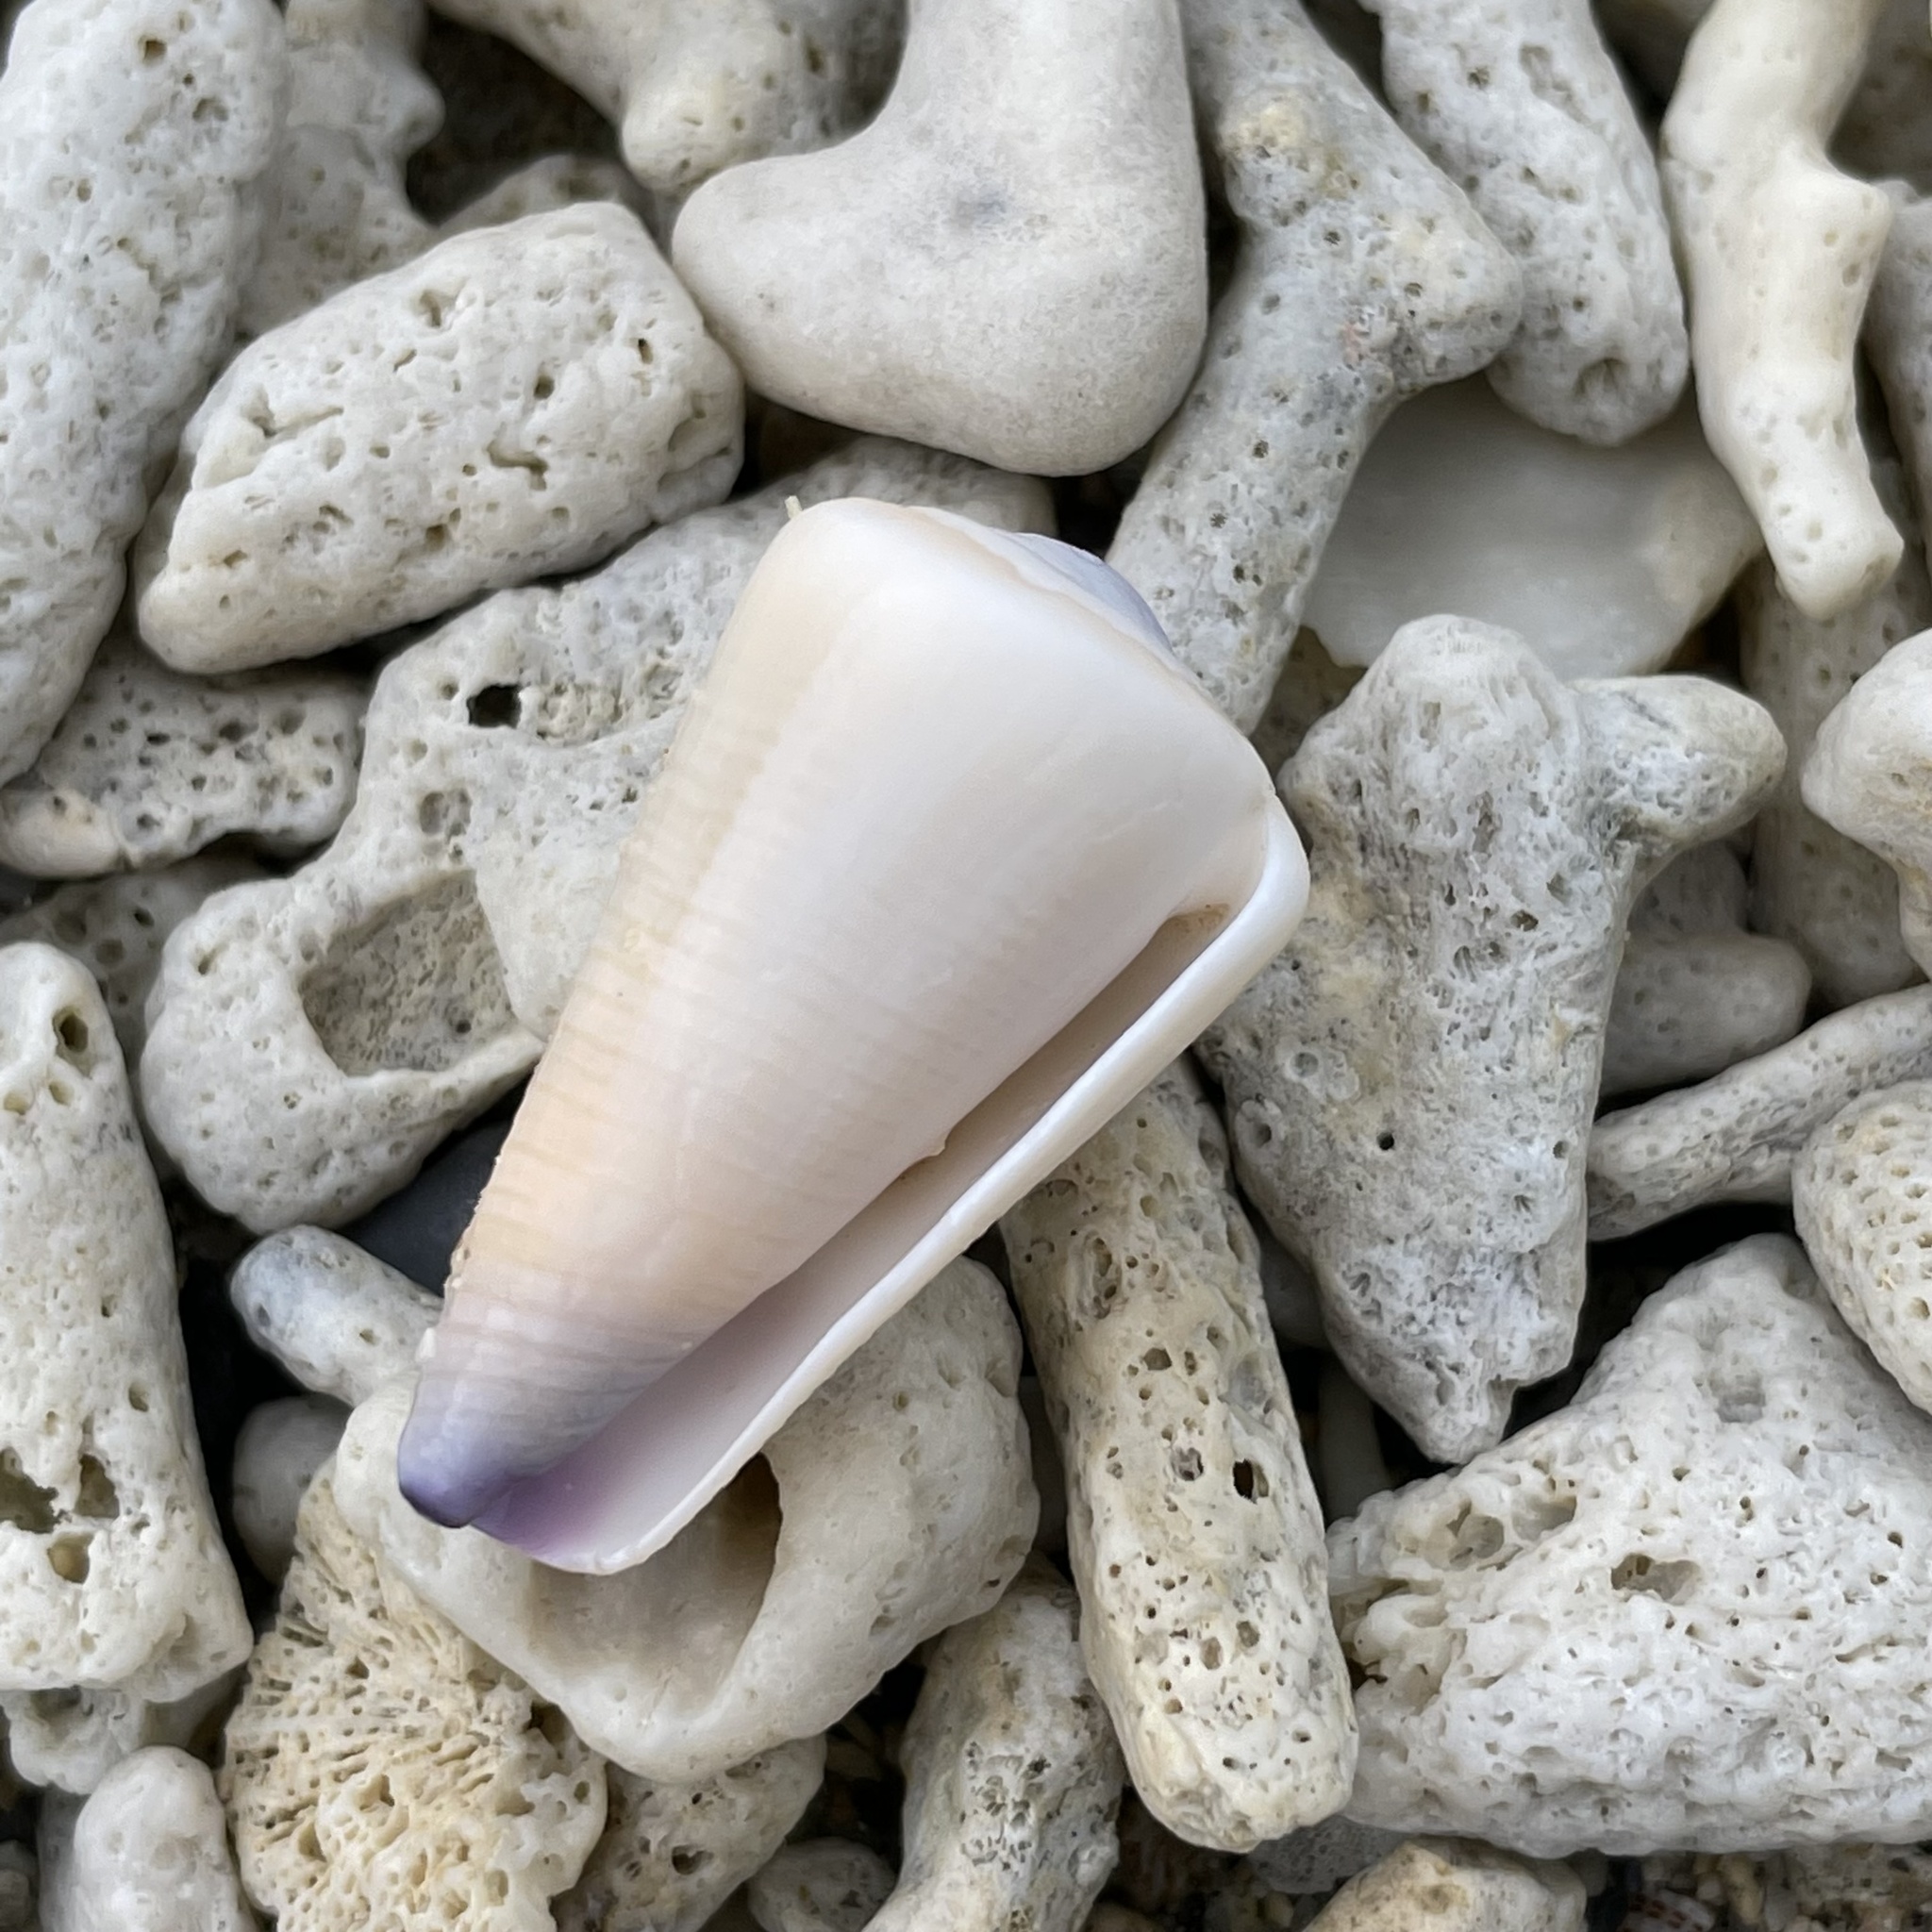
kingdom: Animalia
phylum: Mollusca
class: Gastropoda
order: Neogastropoda
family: Conidae
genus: Conus
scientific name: Conus emaciatus
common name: False virgin cone
